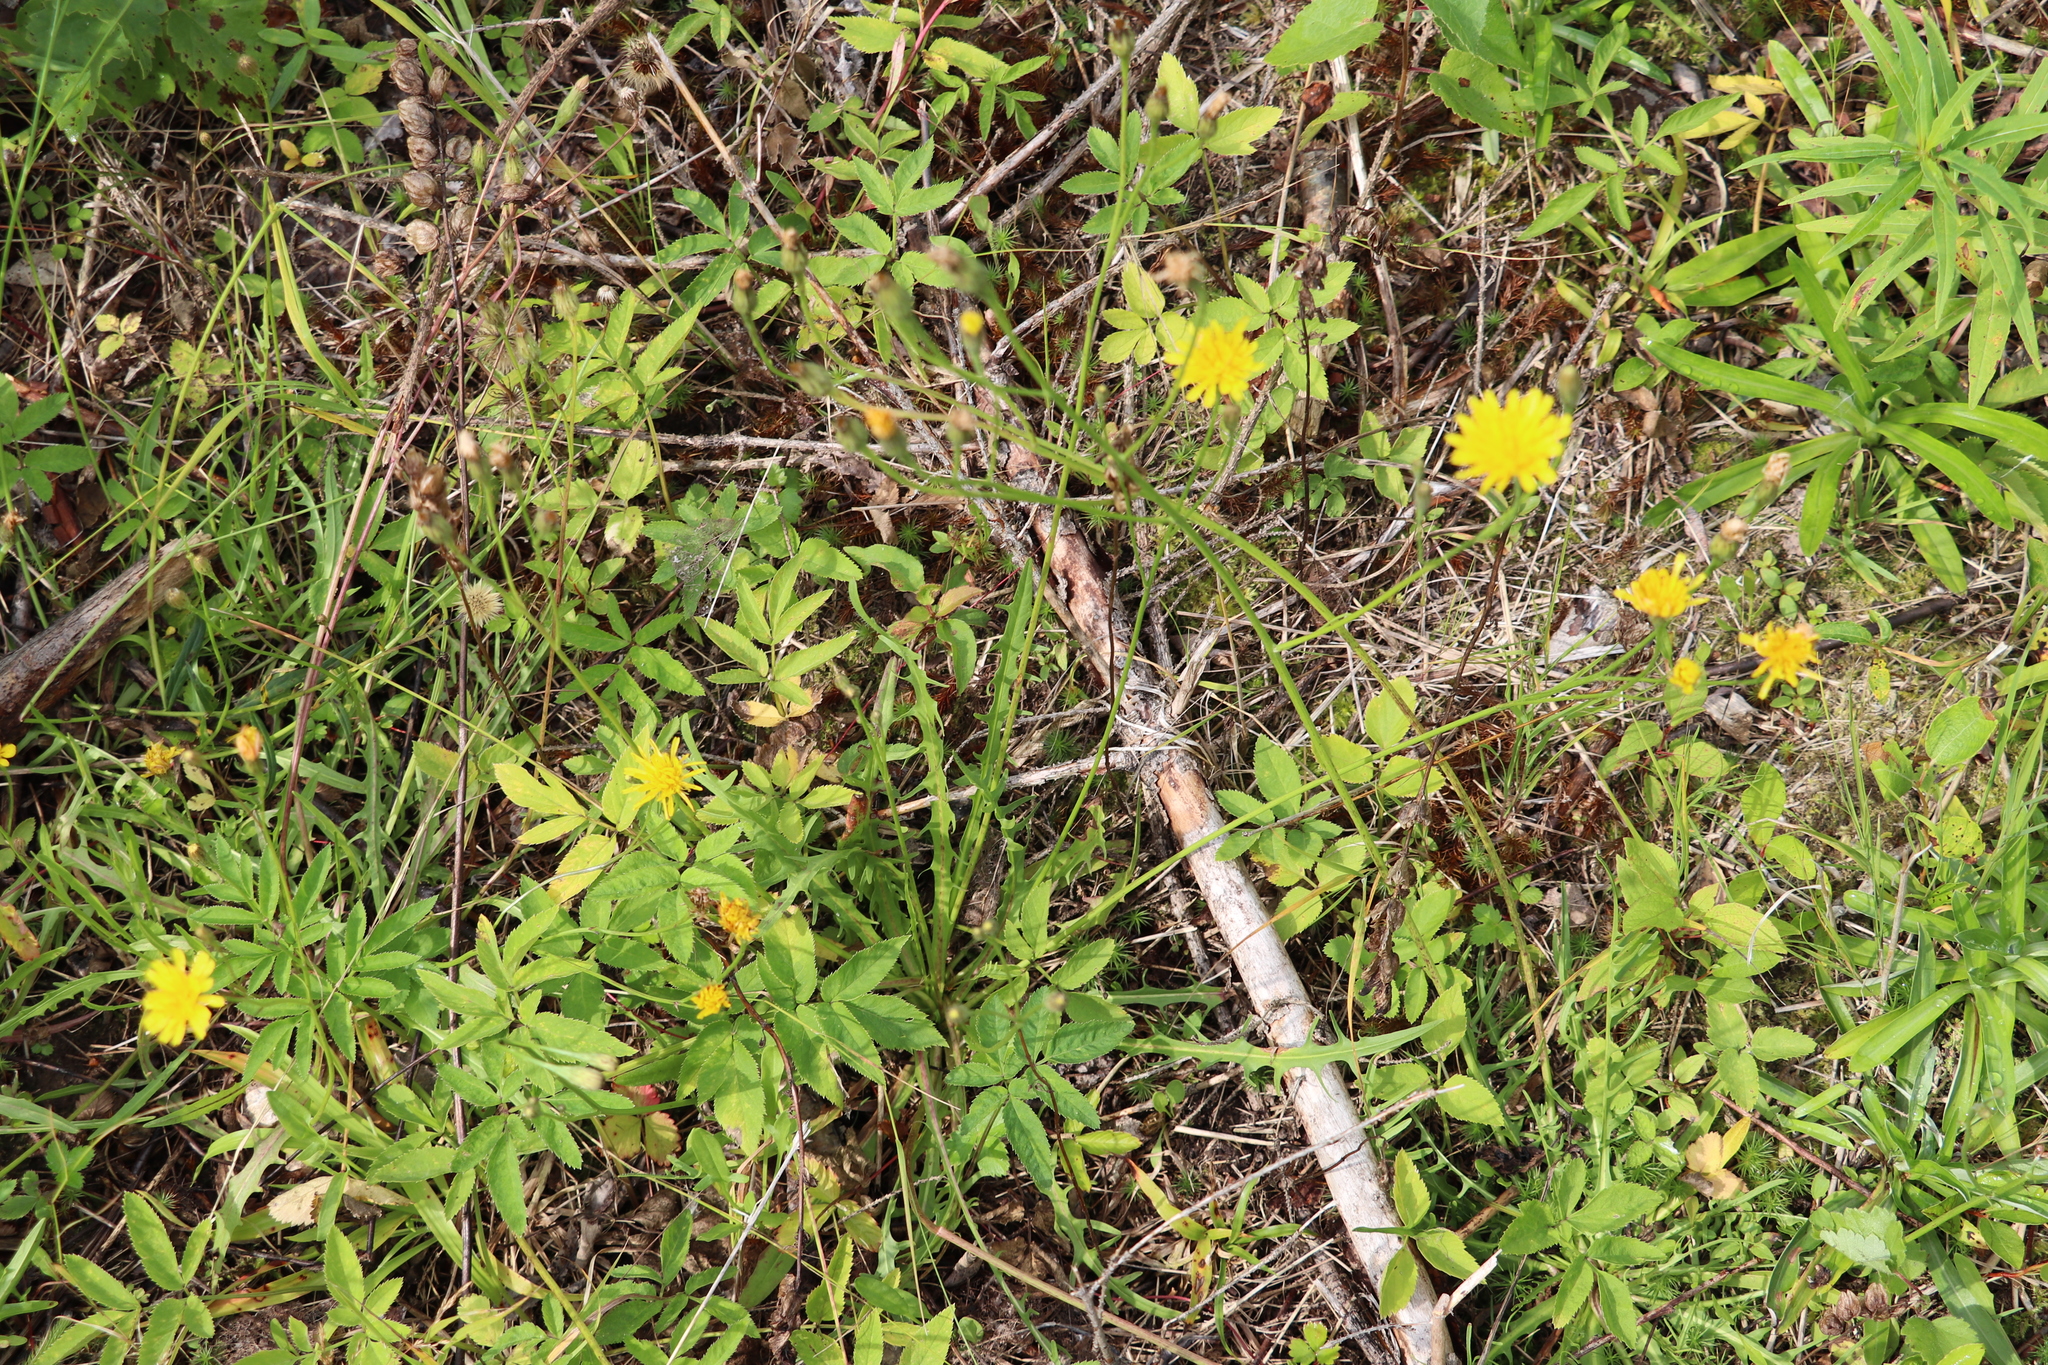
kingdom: Plantae
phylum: Tracheophyta
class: Magnoliopsida
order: Asterales
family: Asteraceae
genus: Scorzoneroides
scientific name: Scorzoneroides autumnalis
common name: Autumn hawkbit
